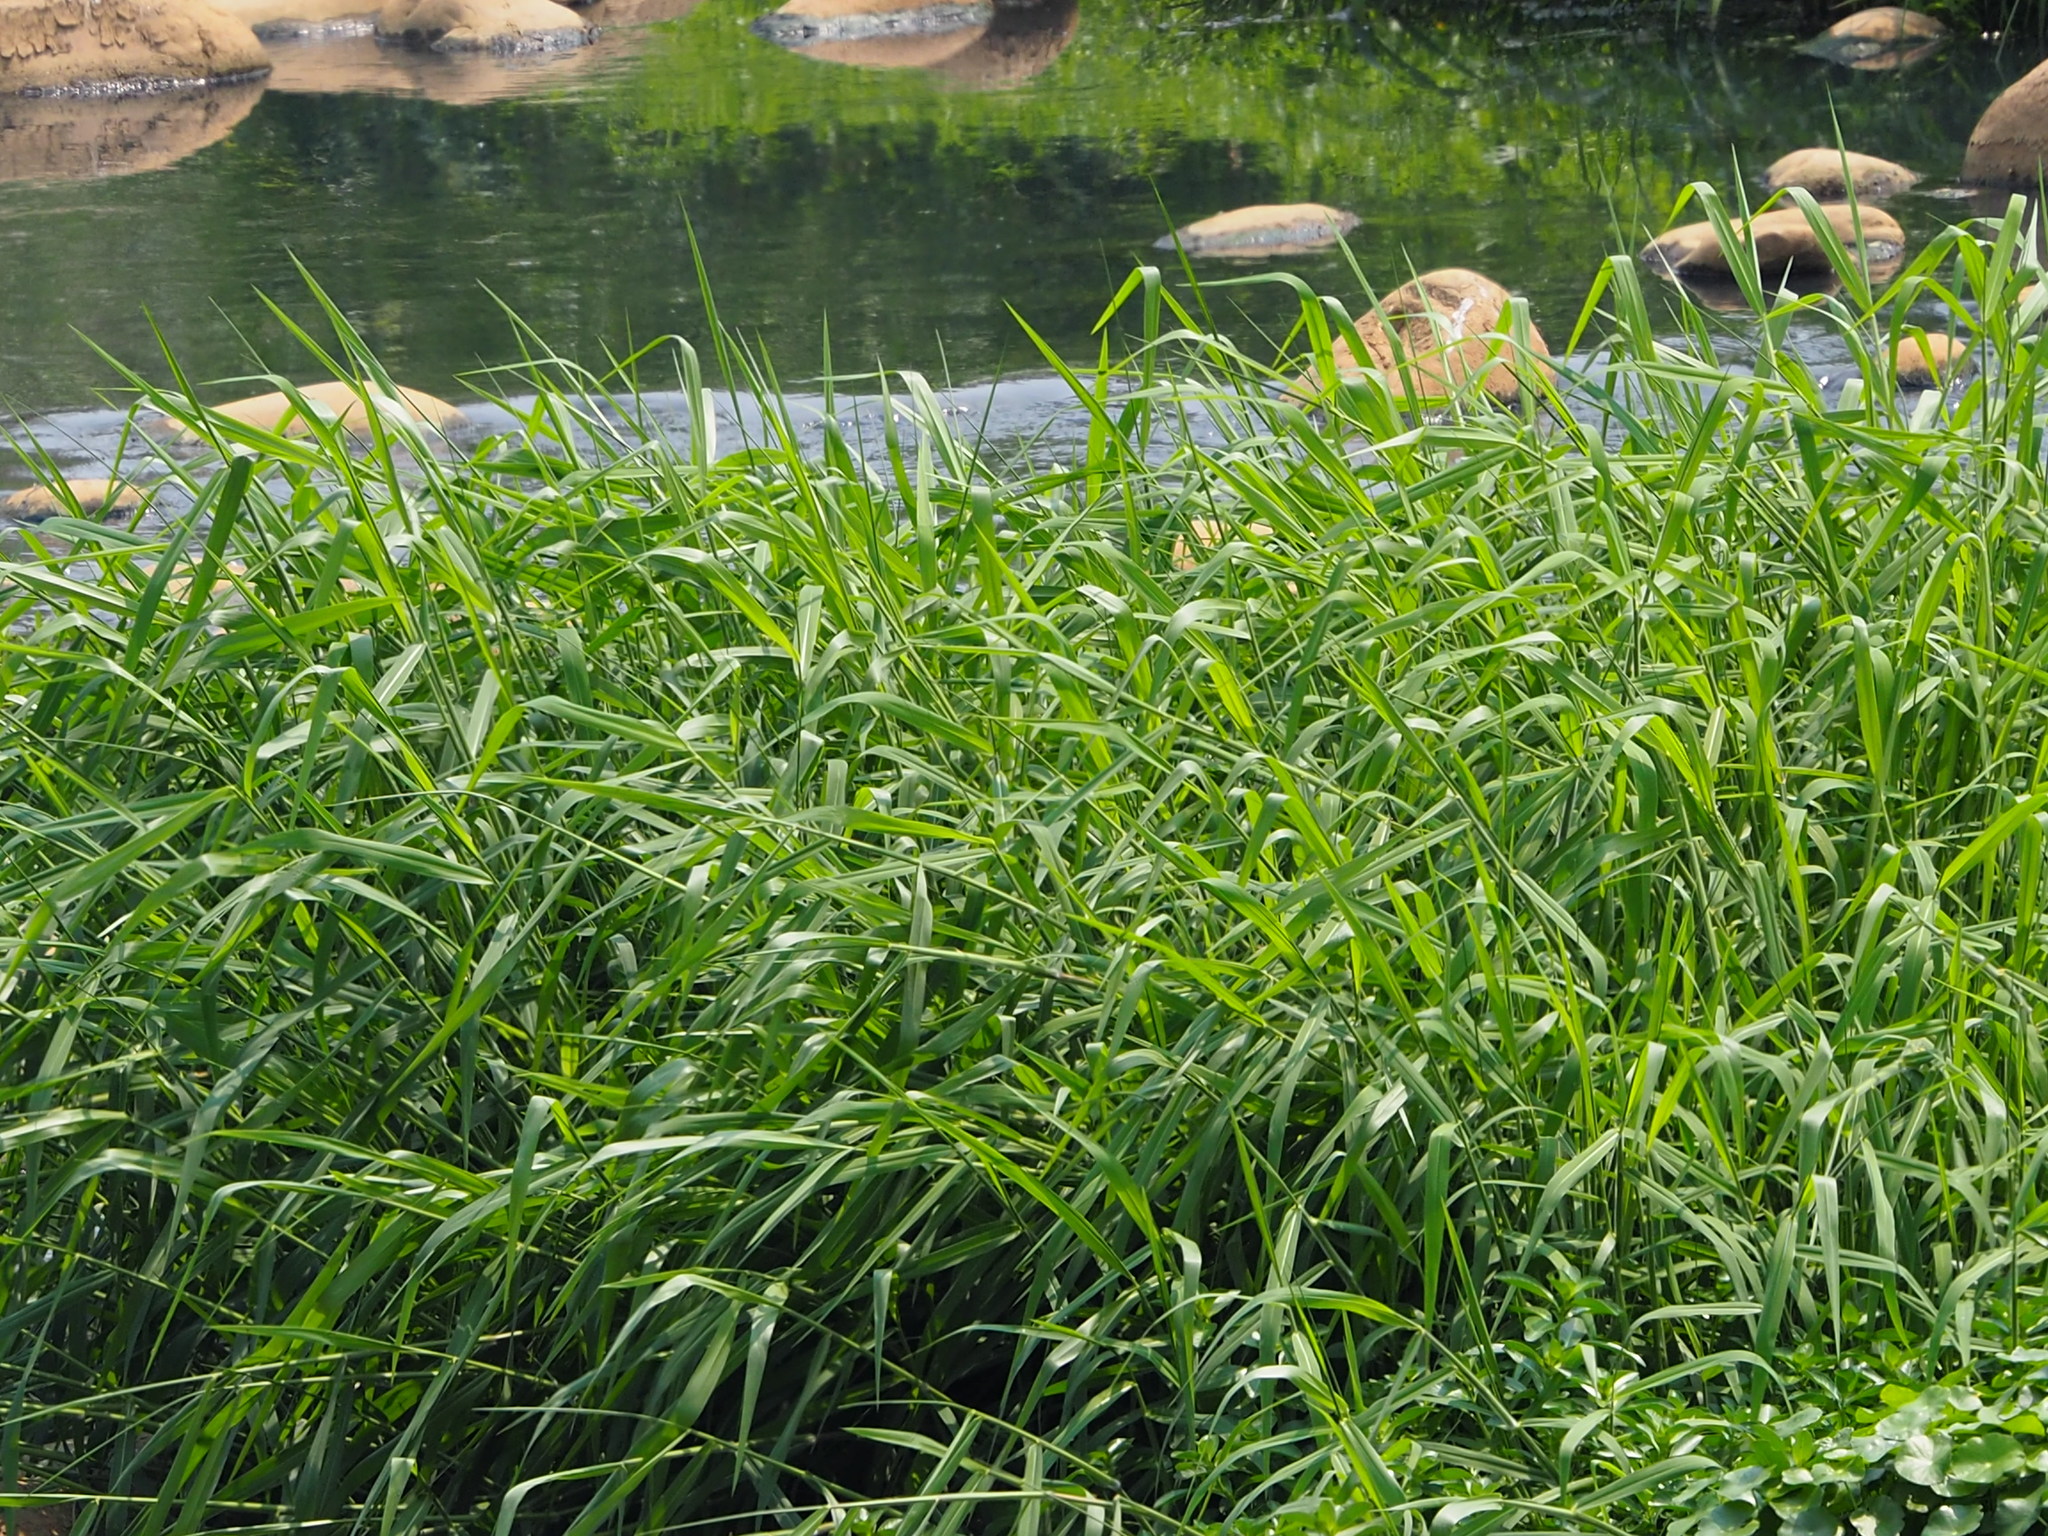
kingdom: Plantae
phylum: Tracheophyta
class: Liliopsida
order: Poales
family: Poaceae
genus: Urochloa
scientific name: Urochloa mutica
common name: Para grass
